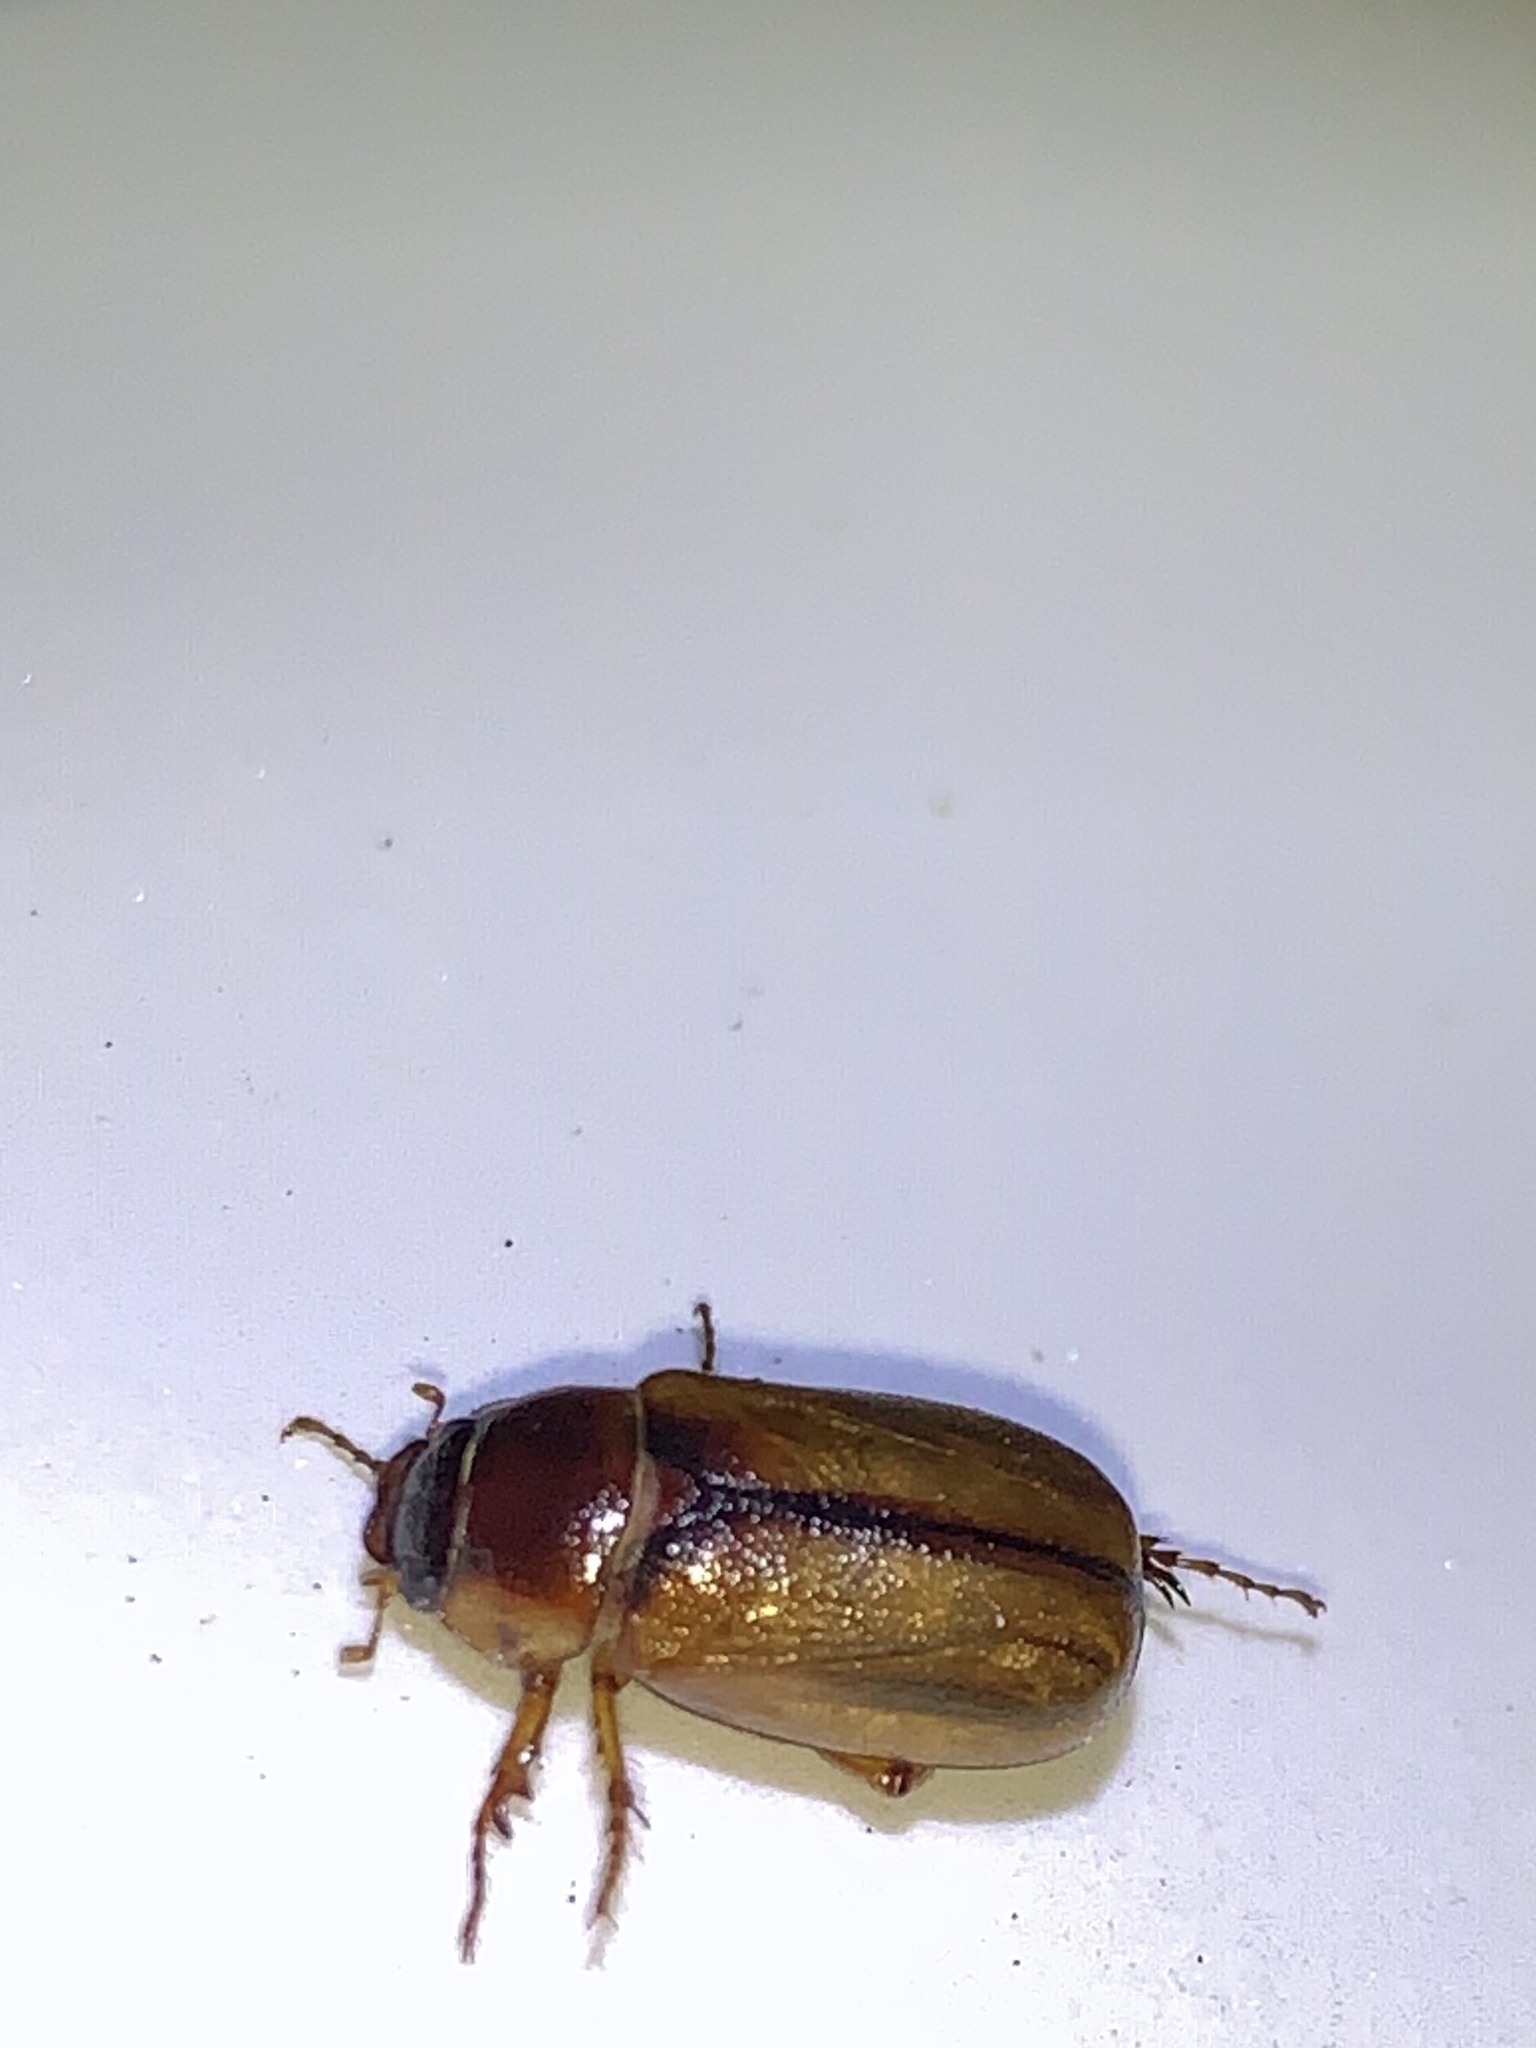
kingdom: Animalia
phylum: Arthropoda
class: Insecta
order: Coleoptera
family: Scarabaeidae
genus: Phyllophaga
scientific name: Phyllophaga bruneri
